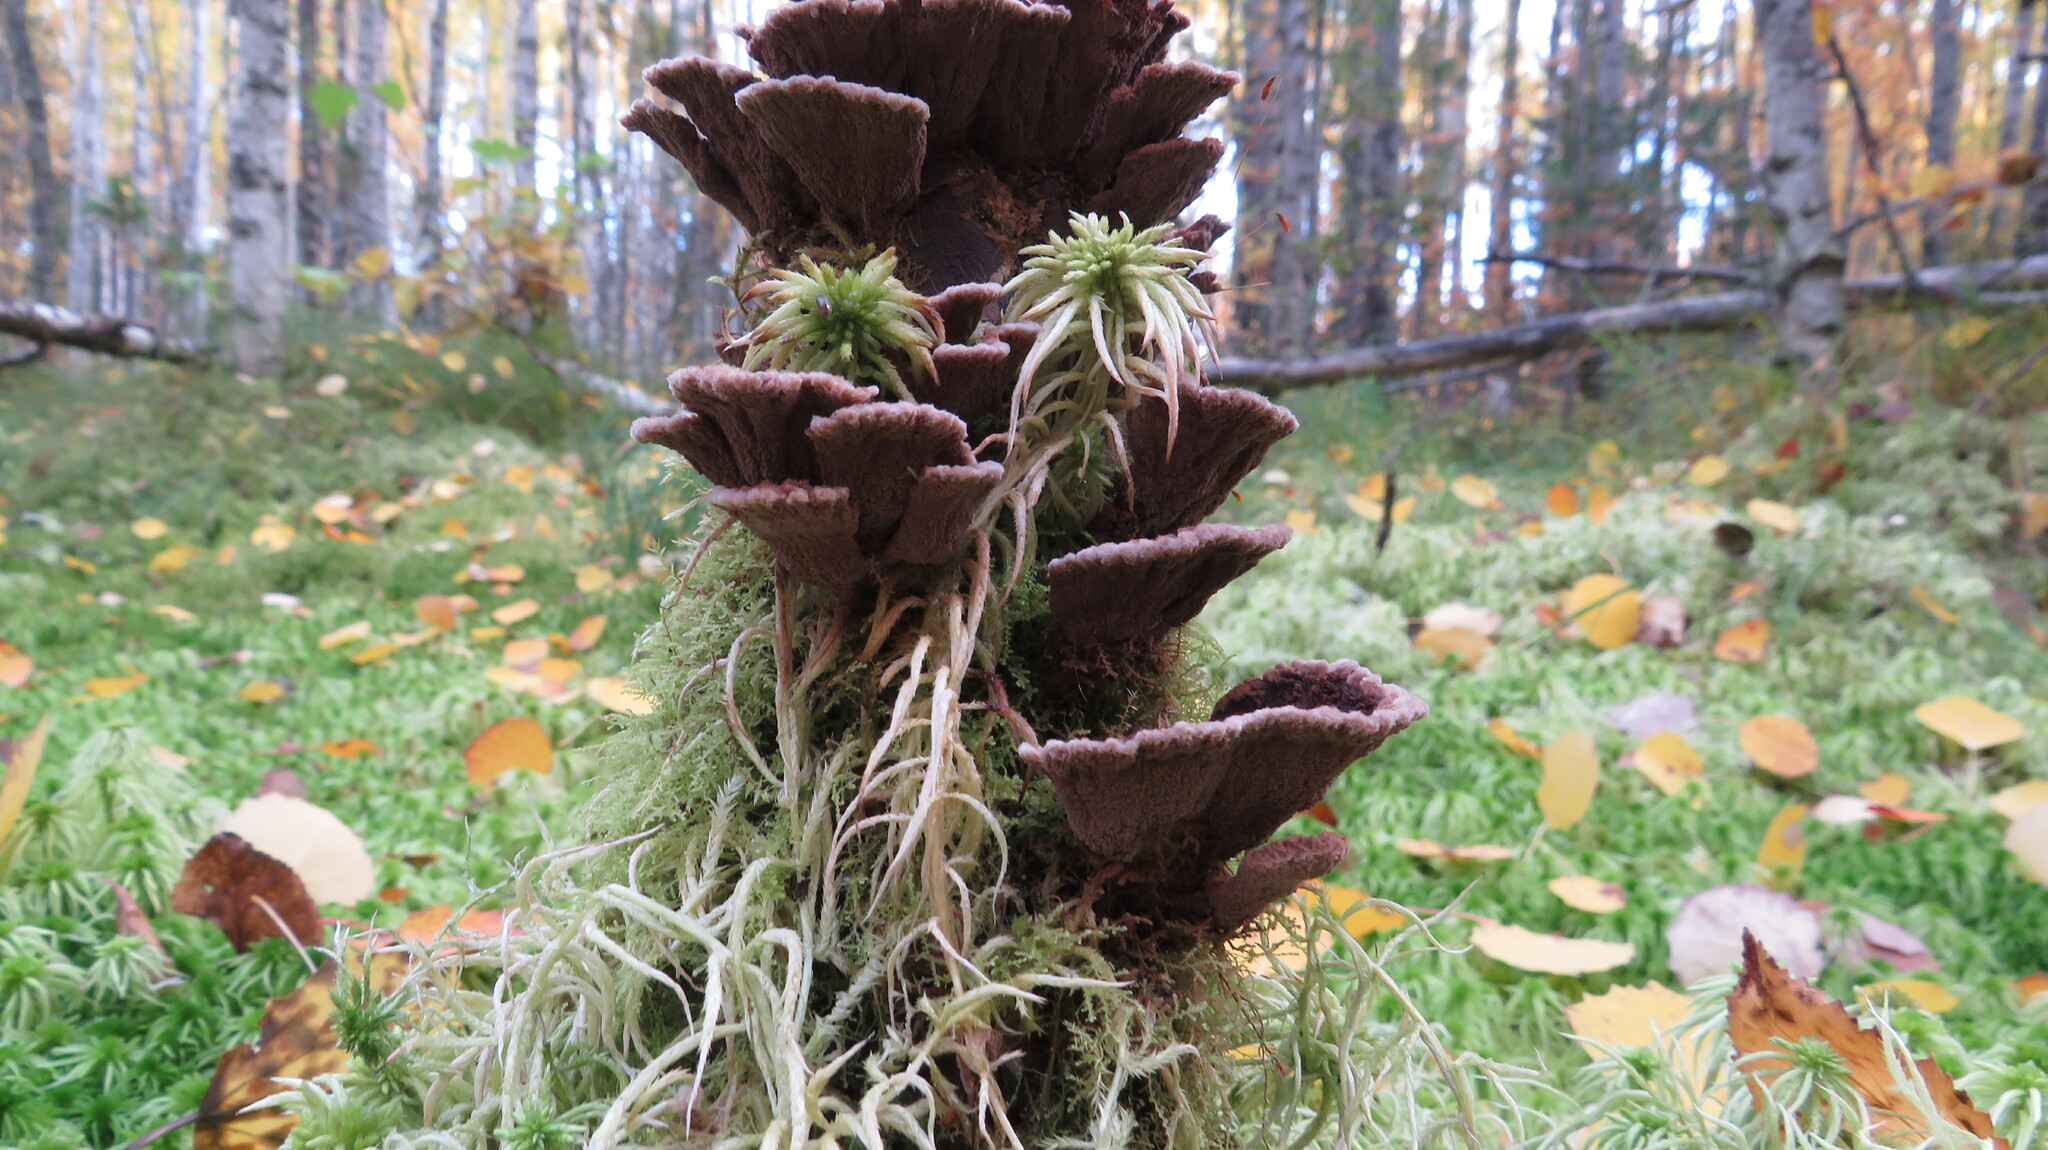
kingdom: Fungi
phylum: Basidiomycota
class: Agaricomycetes
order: Thelephorales
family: Thelephoraceae
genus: Thelephora
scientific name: Thelephora terrestris
